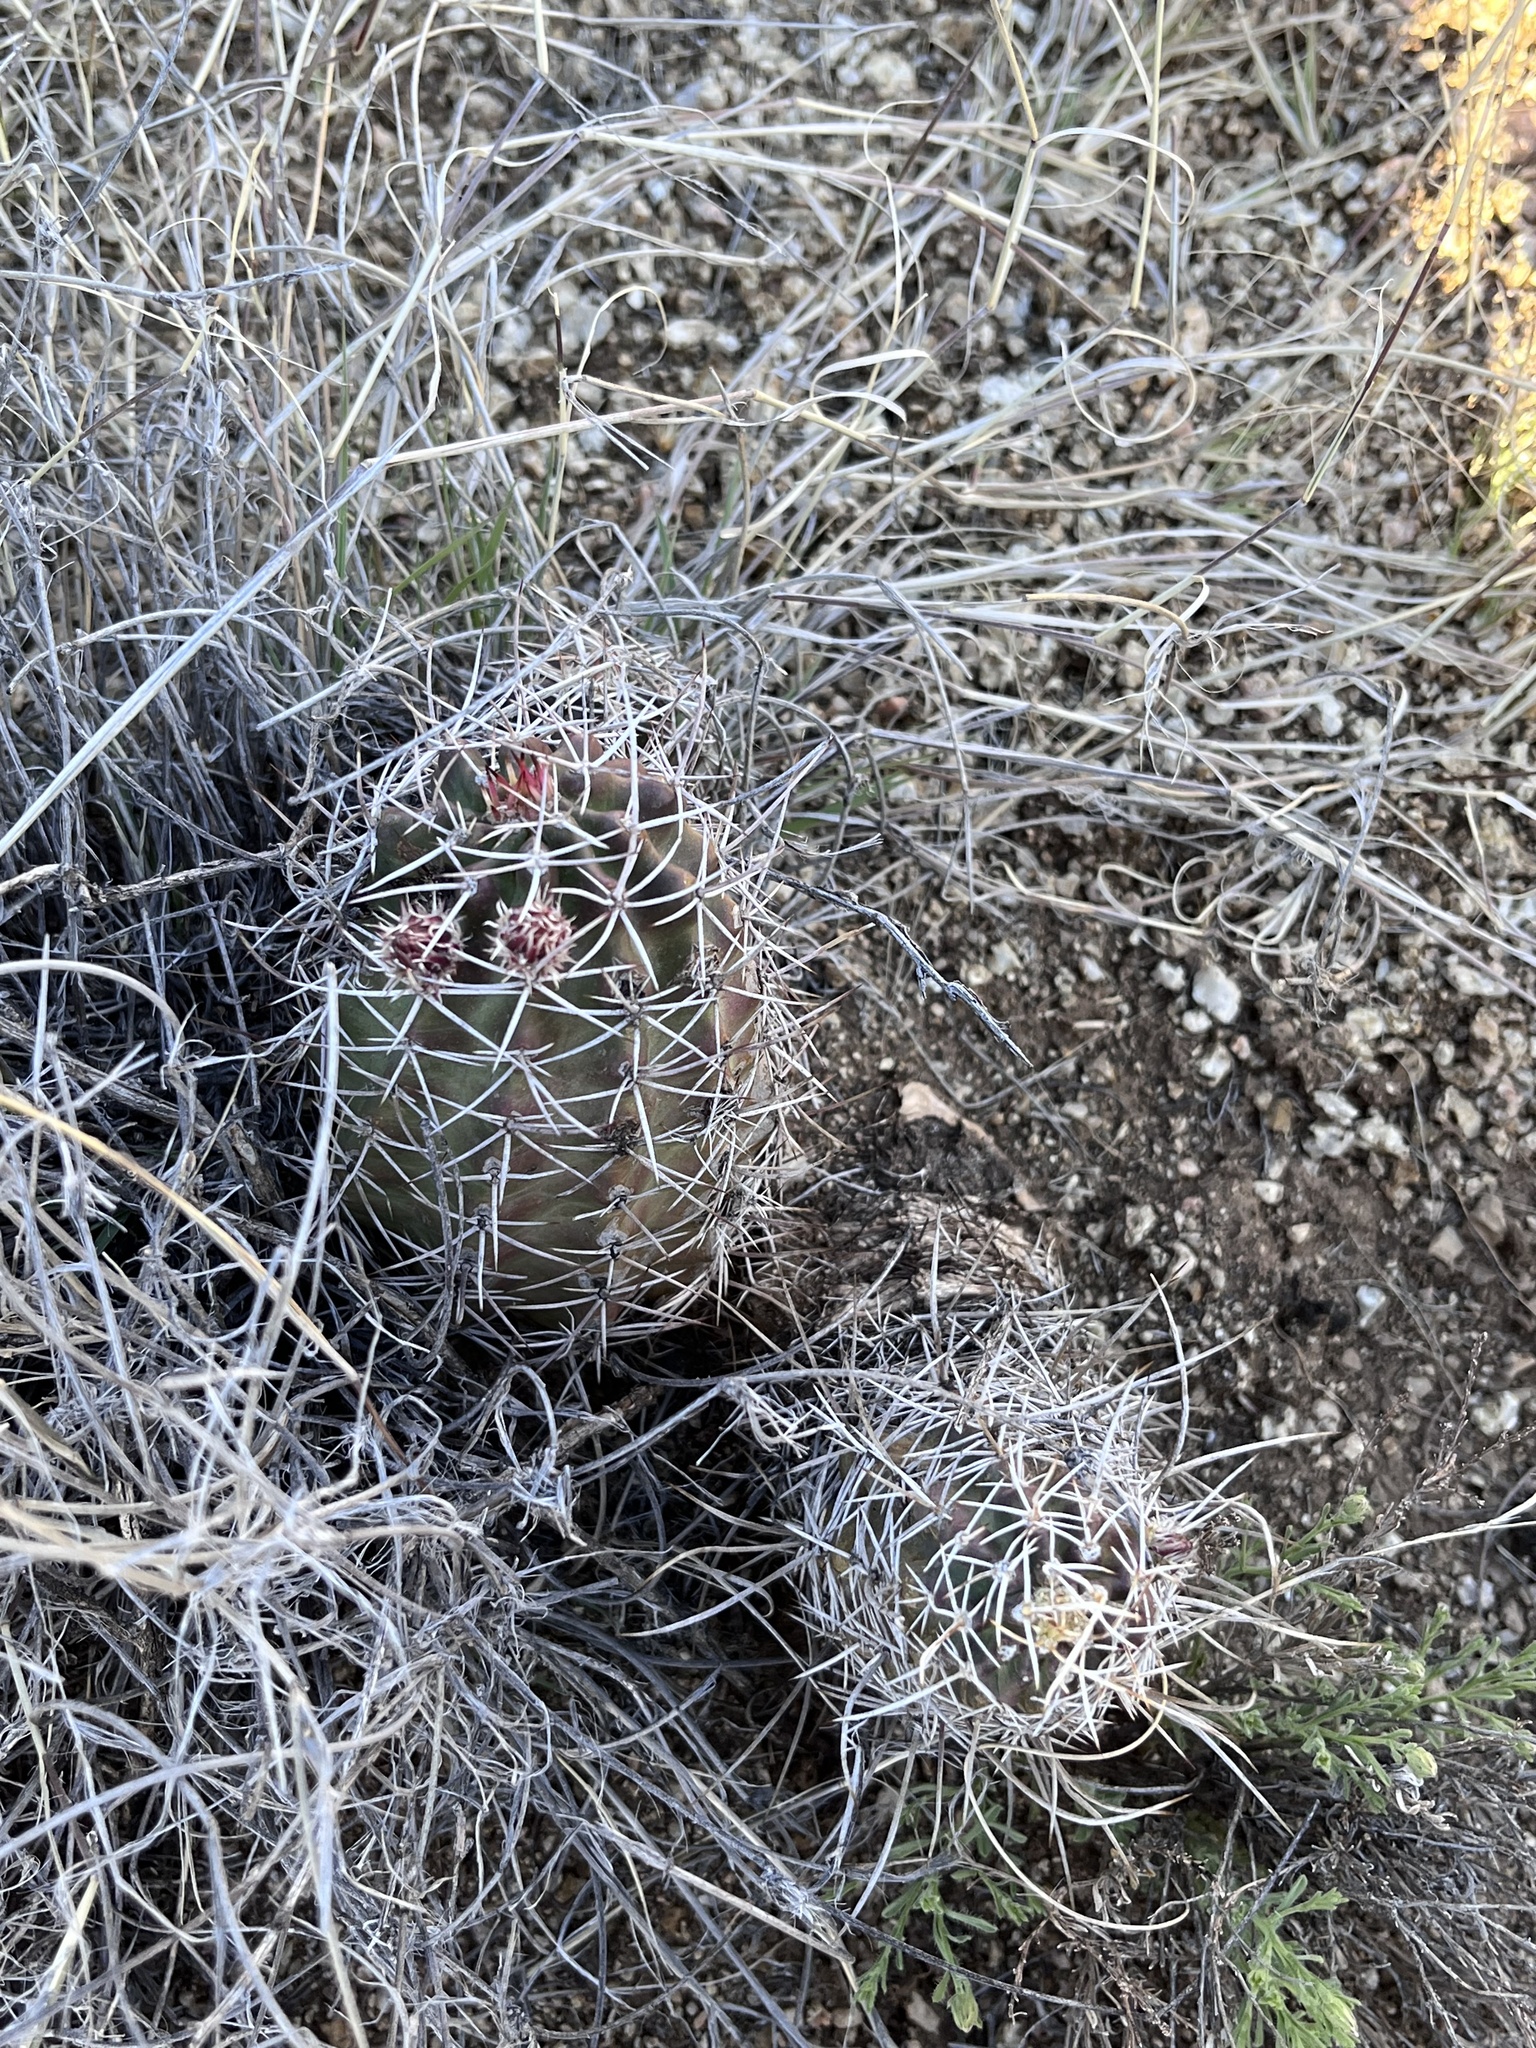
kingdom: Plantae
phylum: Tracheophyta
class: Magnoliopsida
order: Caryophyllales
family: Cactaceae
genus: Echinocereus
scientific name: Echinocereus fendleri
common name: Fendler's hedgehog cactus
